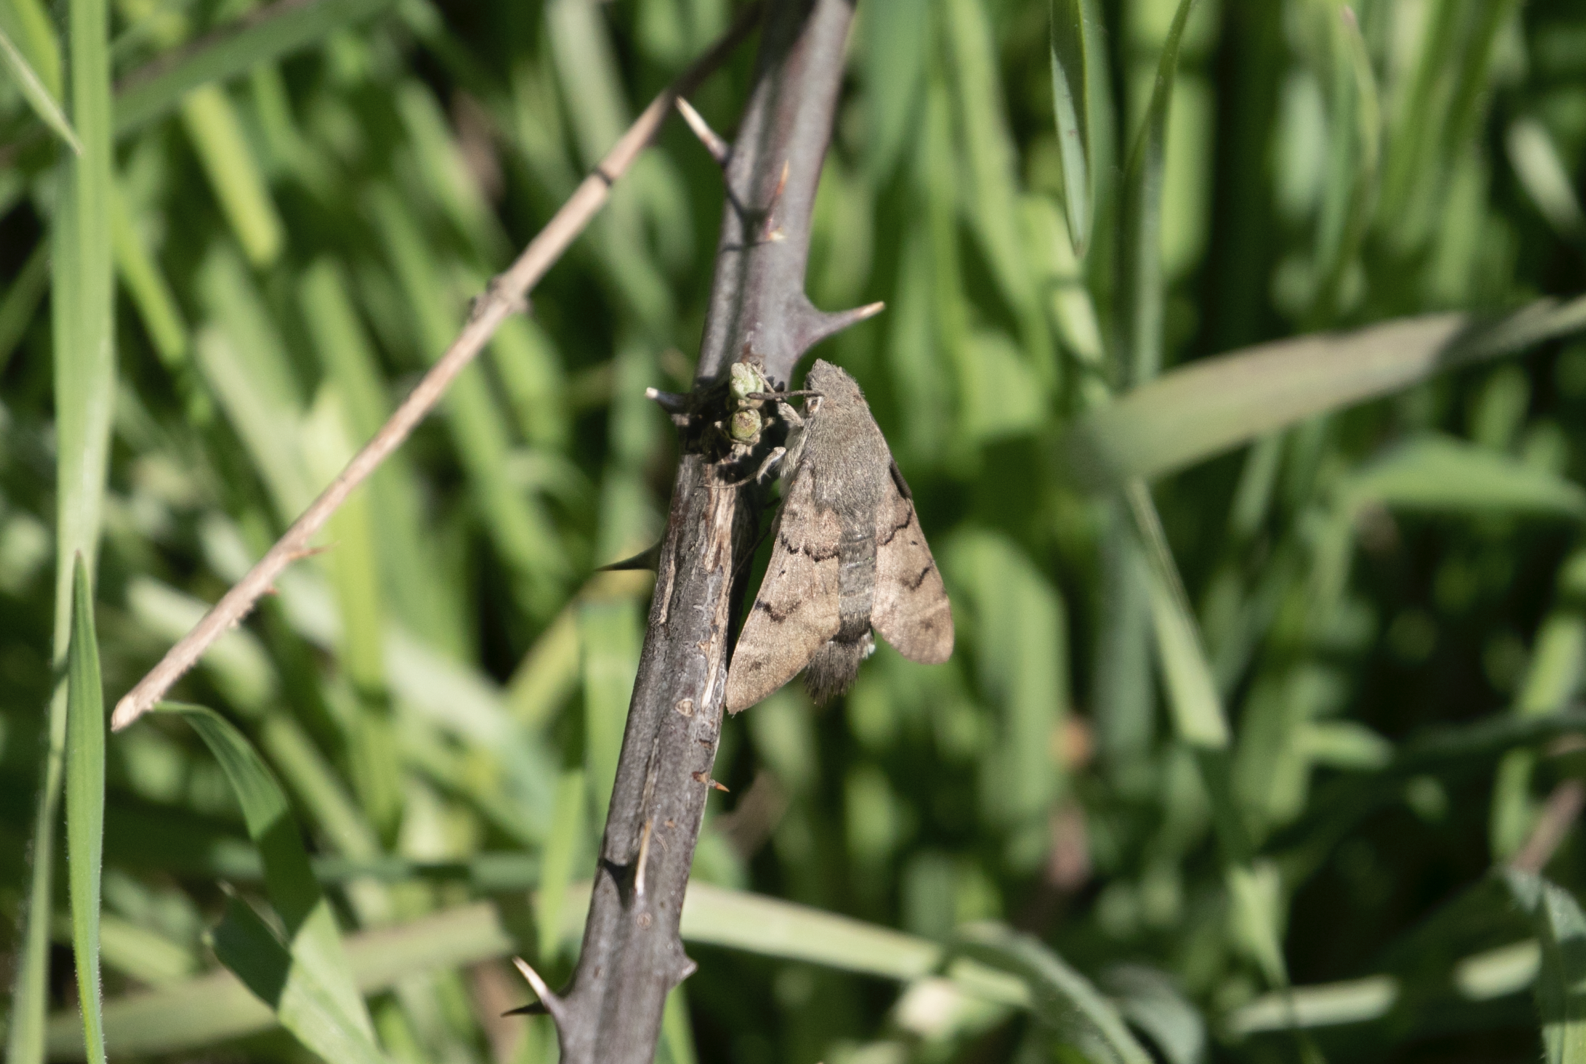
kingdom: Animalia
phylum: Arthropoda
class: Insecta
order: Lepidoptera
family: Sphingidae
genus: Macroglossum
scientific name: Macroglossum stellatarum
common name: Humming-bird hawk-moth
